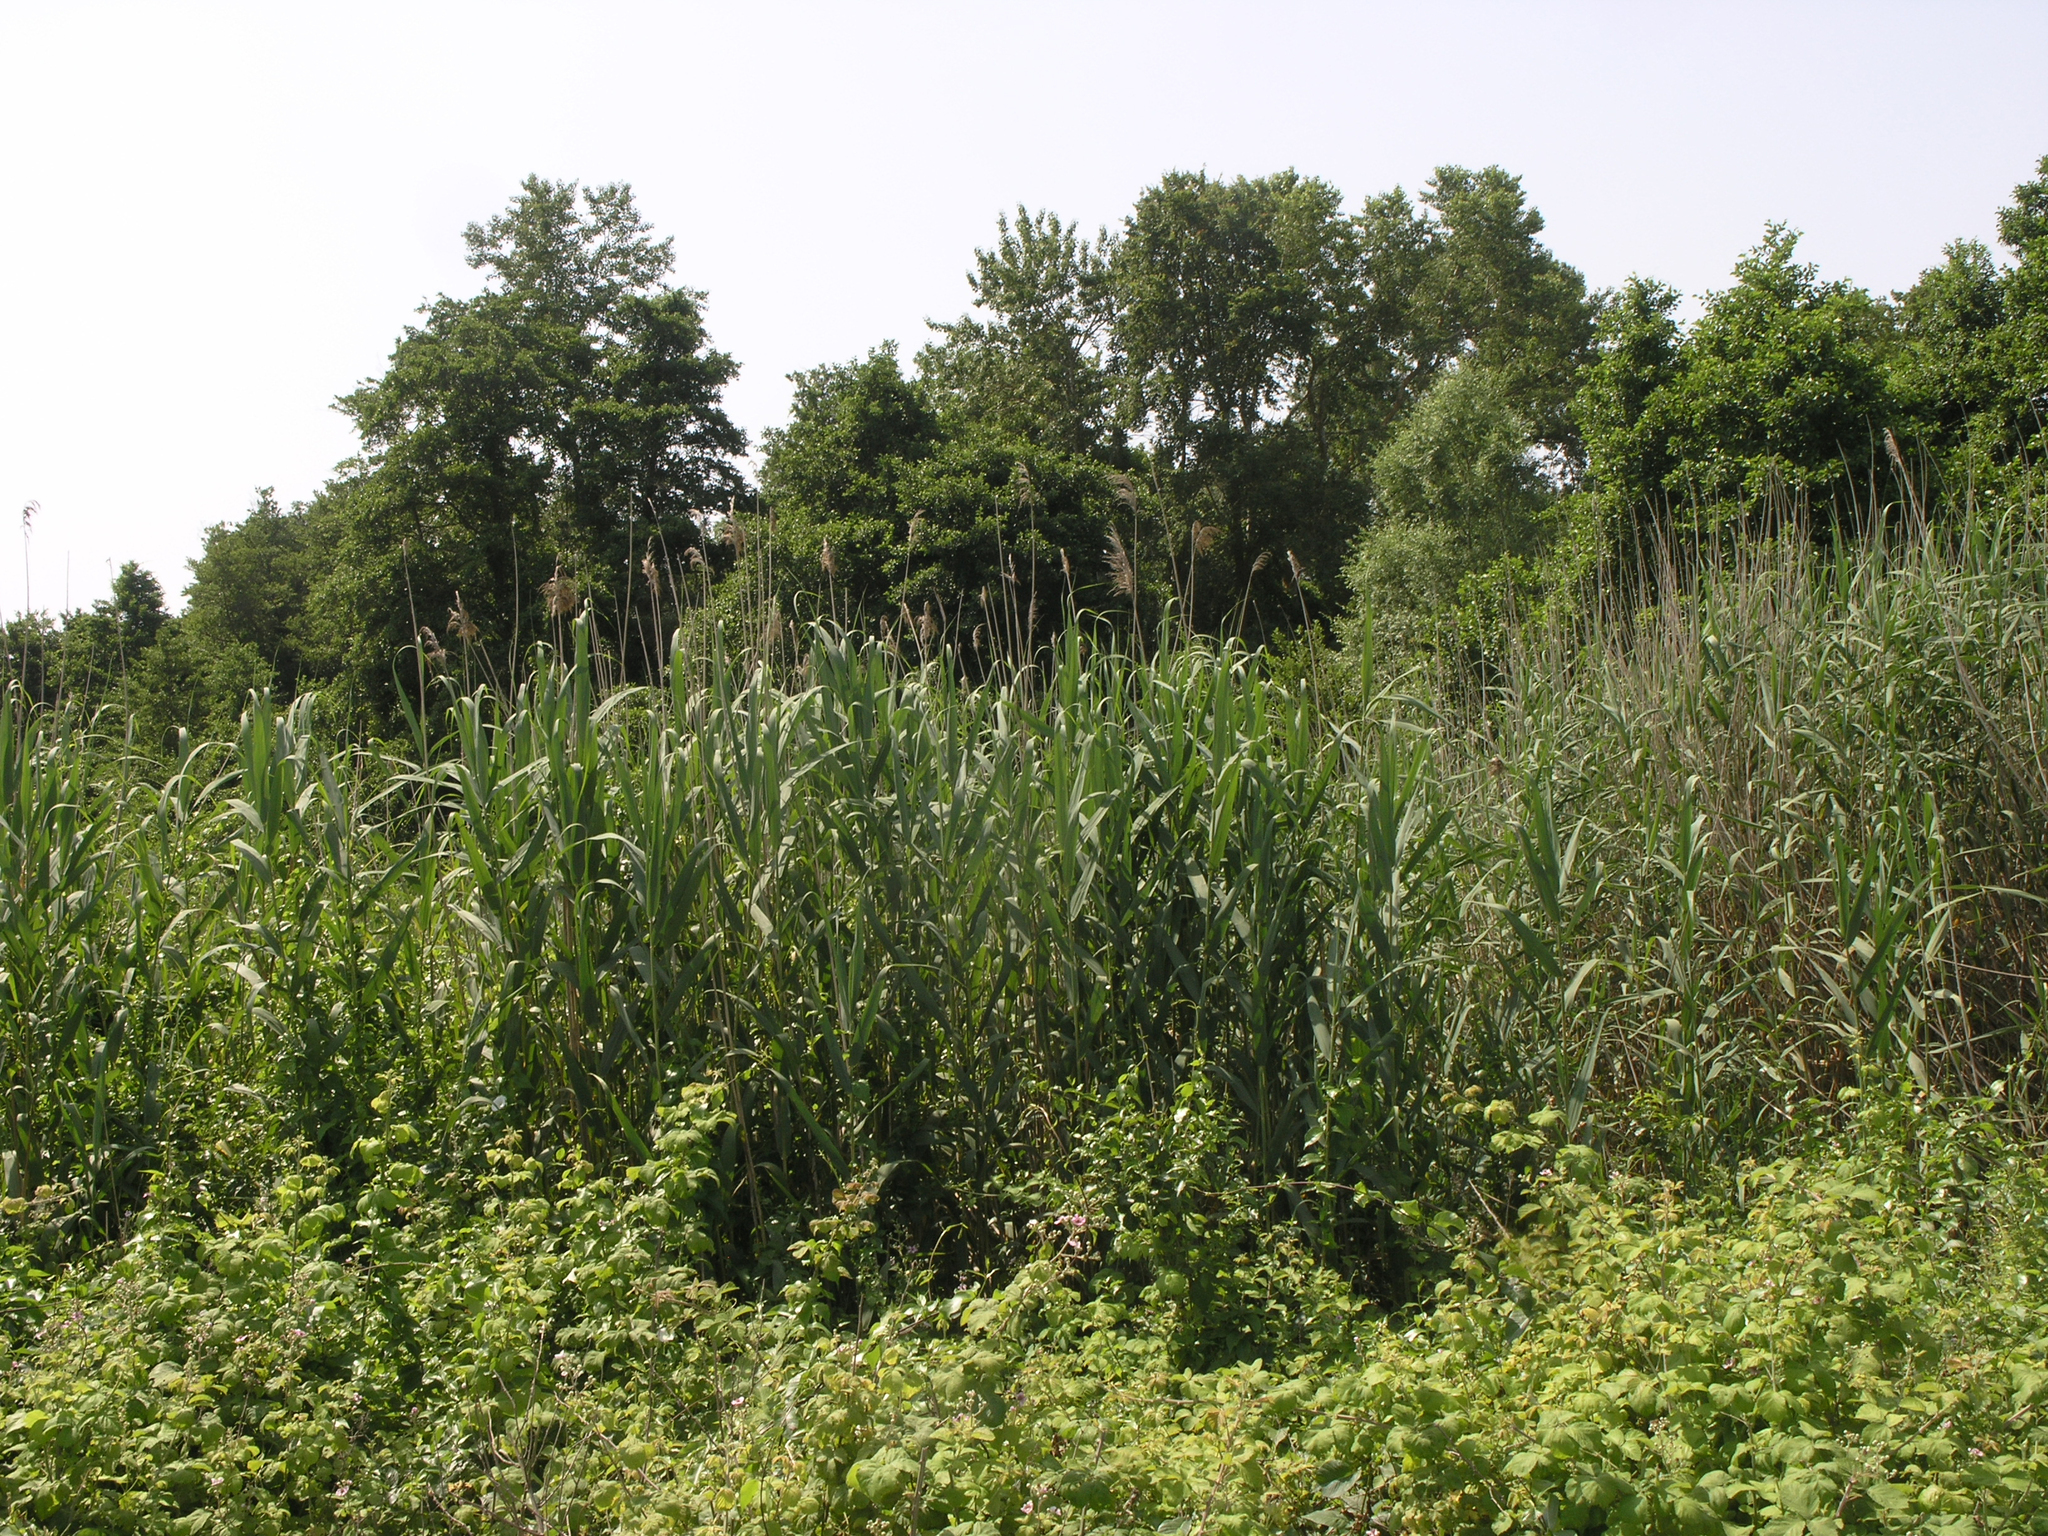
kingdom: Plantae
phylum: Tracheophyta
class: Liliopsida
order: Poales
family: Poaceae
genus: Phragmites
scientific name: Phragmites australis
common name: Common reed
